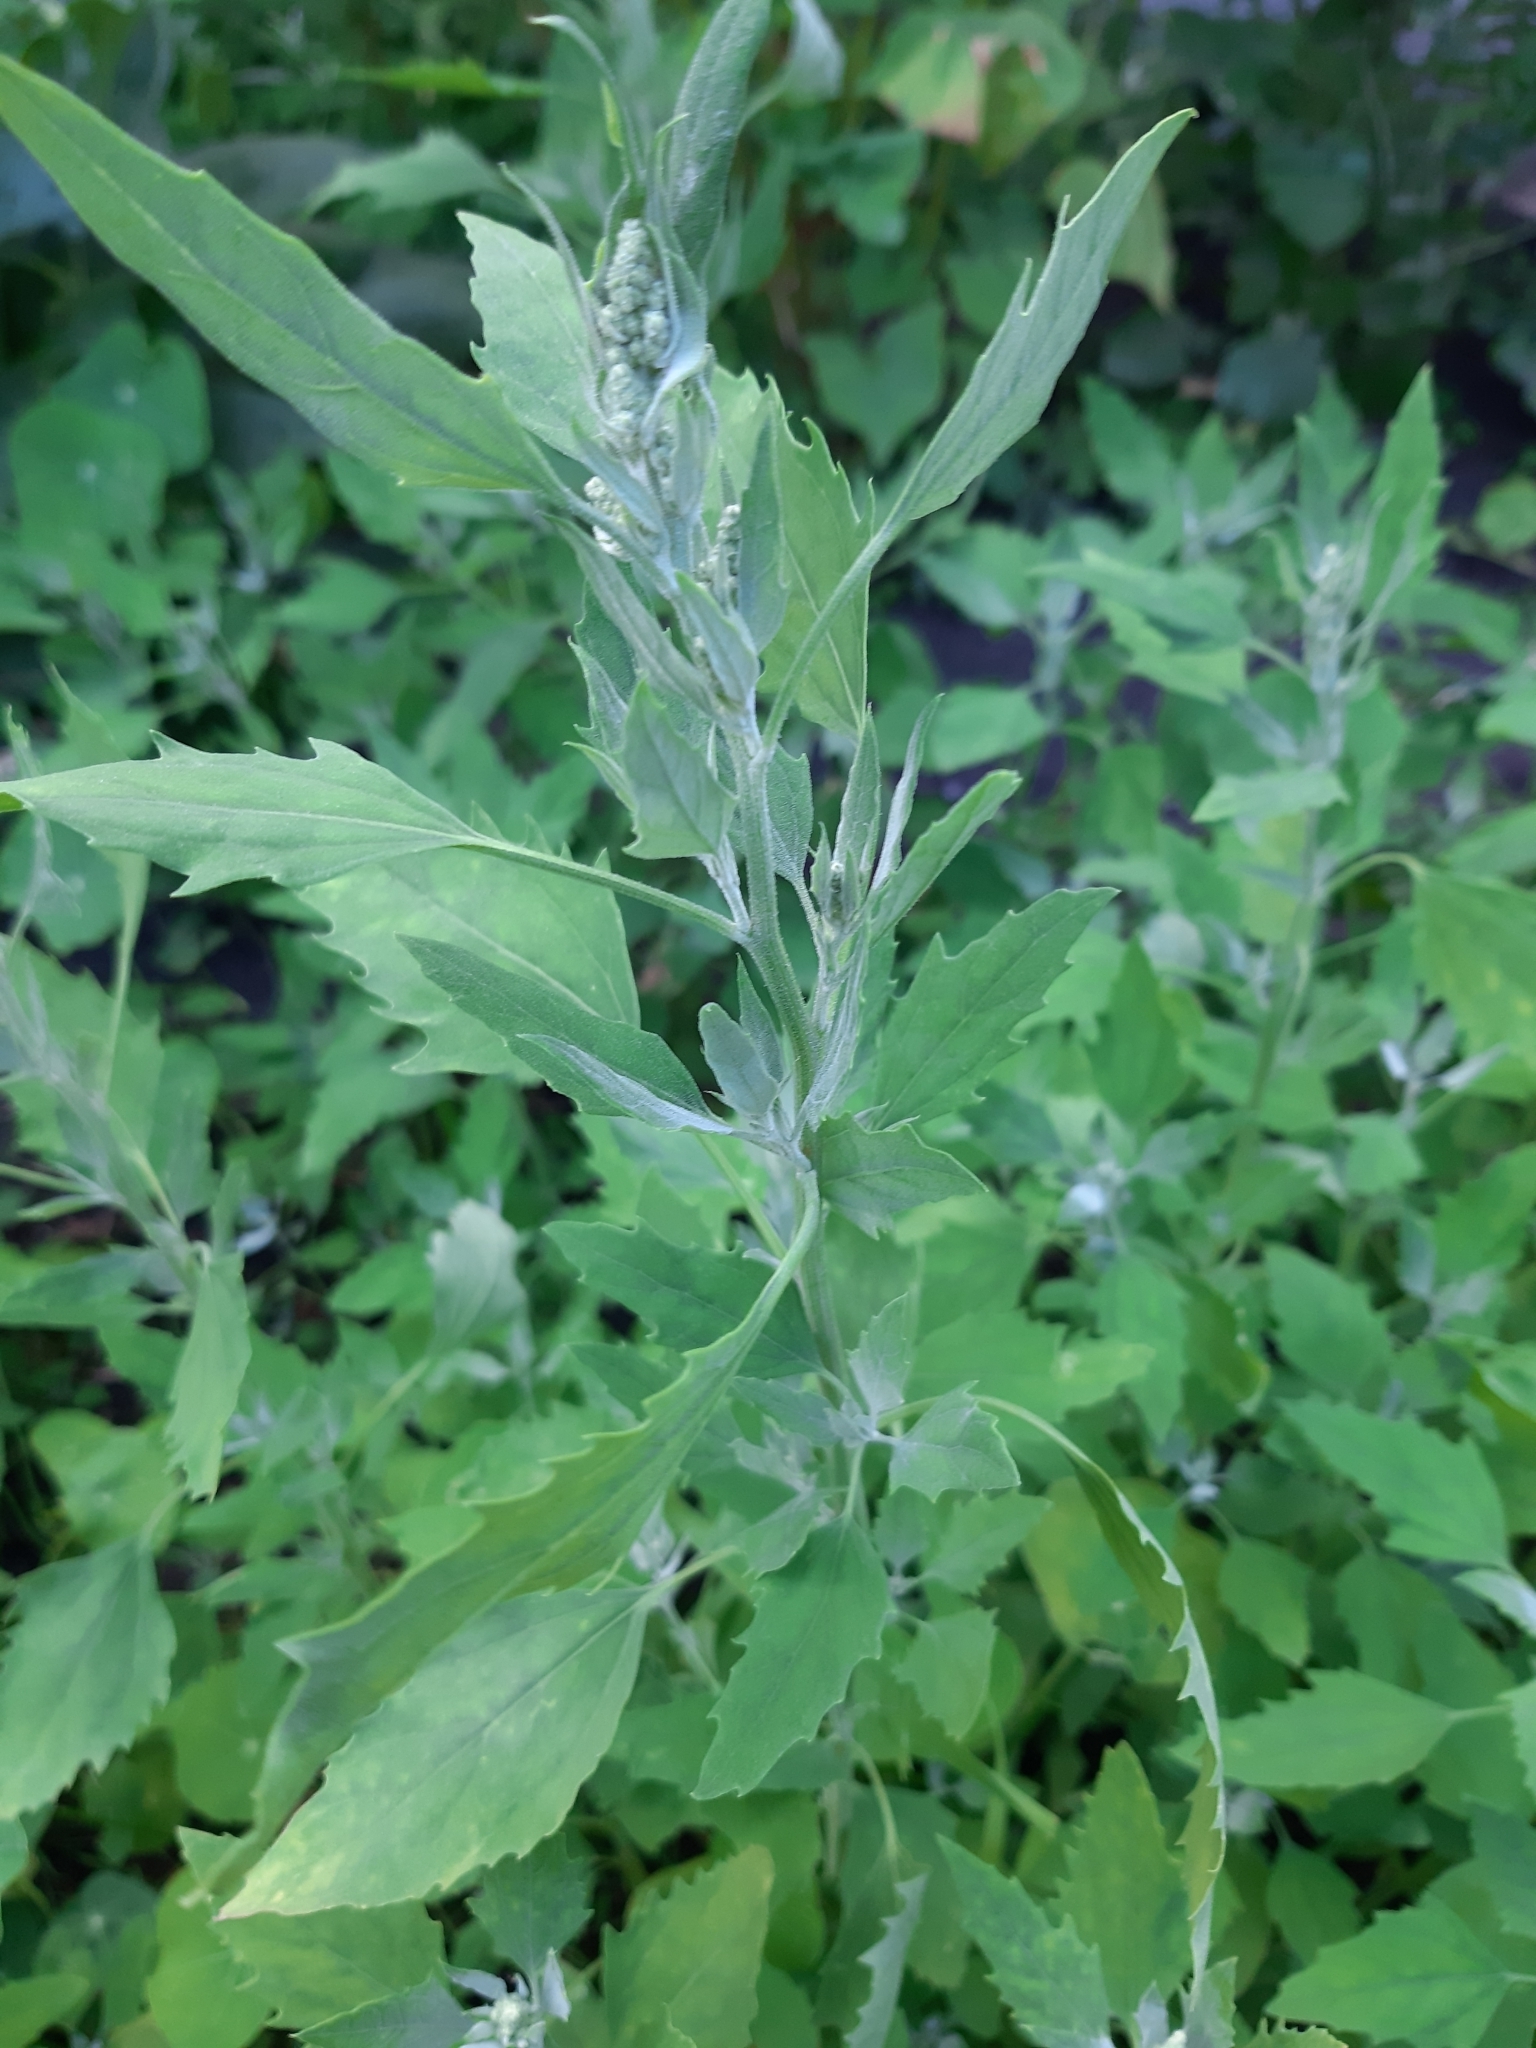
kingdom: Plantae
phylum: Tracheophyta
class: Magnoliopsida
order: Caryophyllales
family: Amaranthaceae
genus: Chenopodium
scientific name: Chenopodium album
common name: Fat-hen
